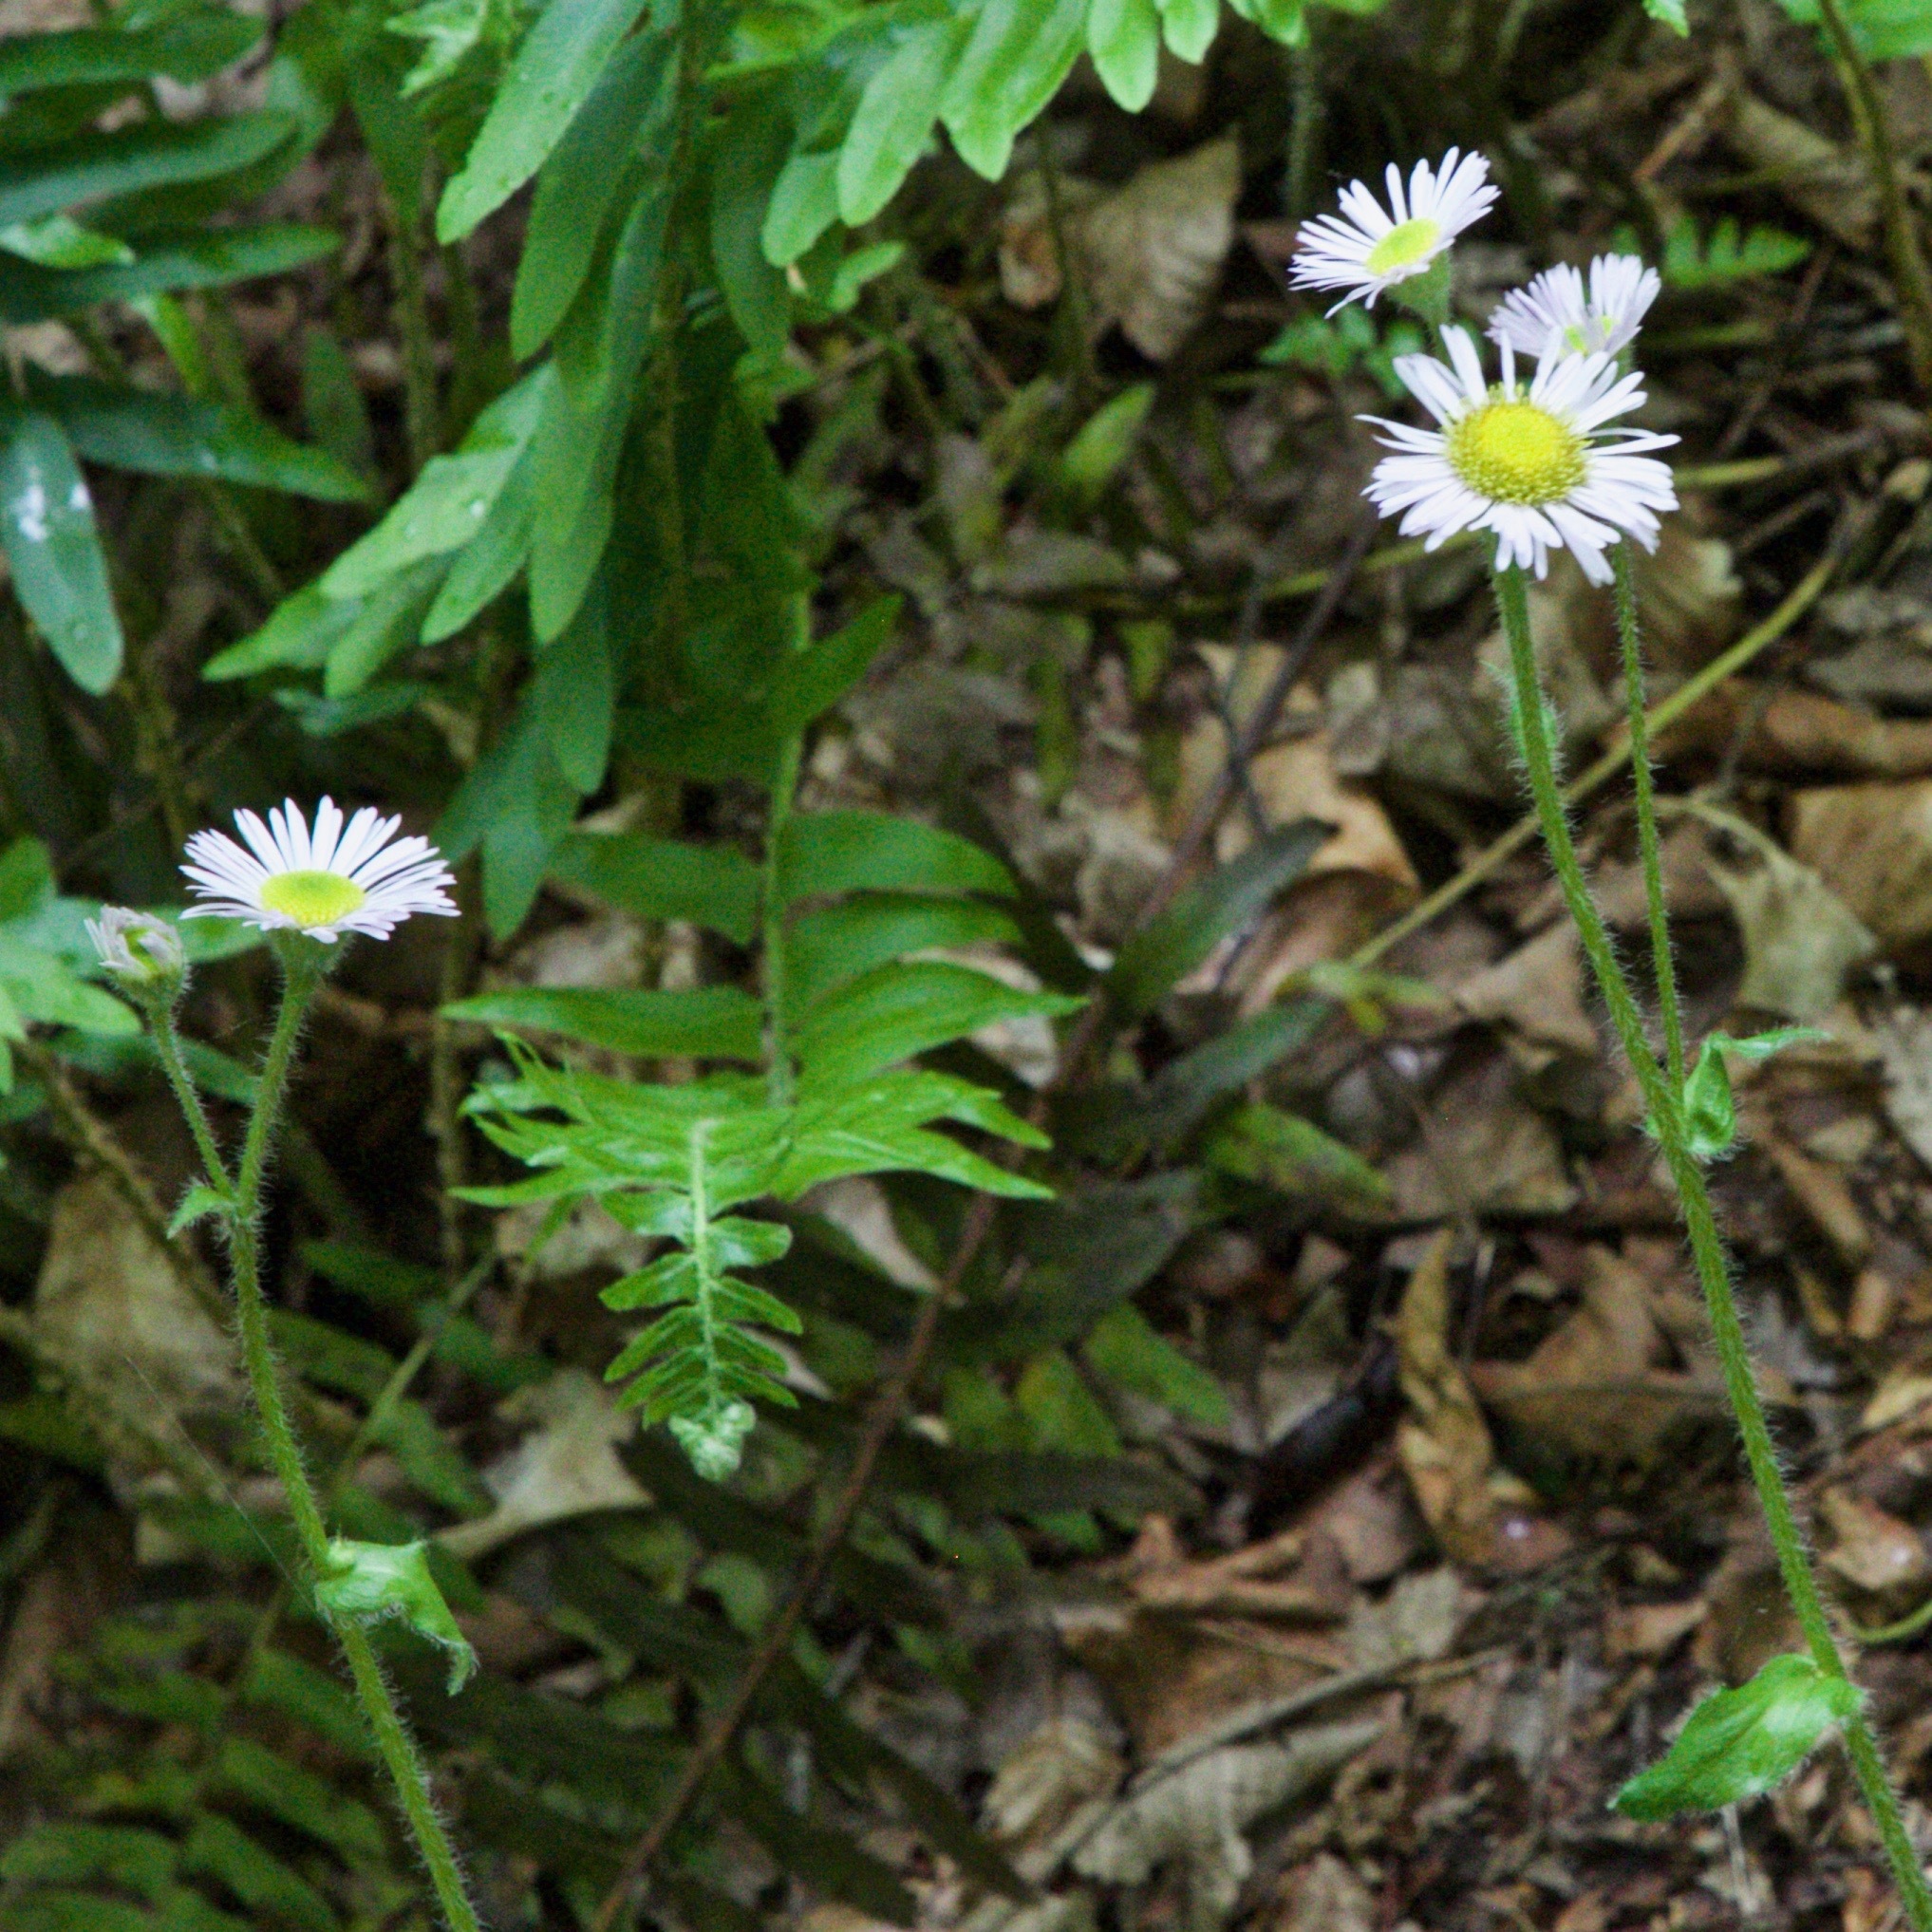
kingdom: Plantae
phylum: Tracheophyta
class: Magnoliopsida
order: Asterales
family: Asteraceae
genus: Erigeron
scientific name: Erigeron philadelphicus
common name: Robin's-plantain
